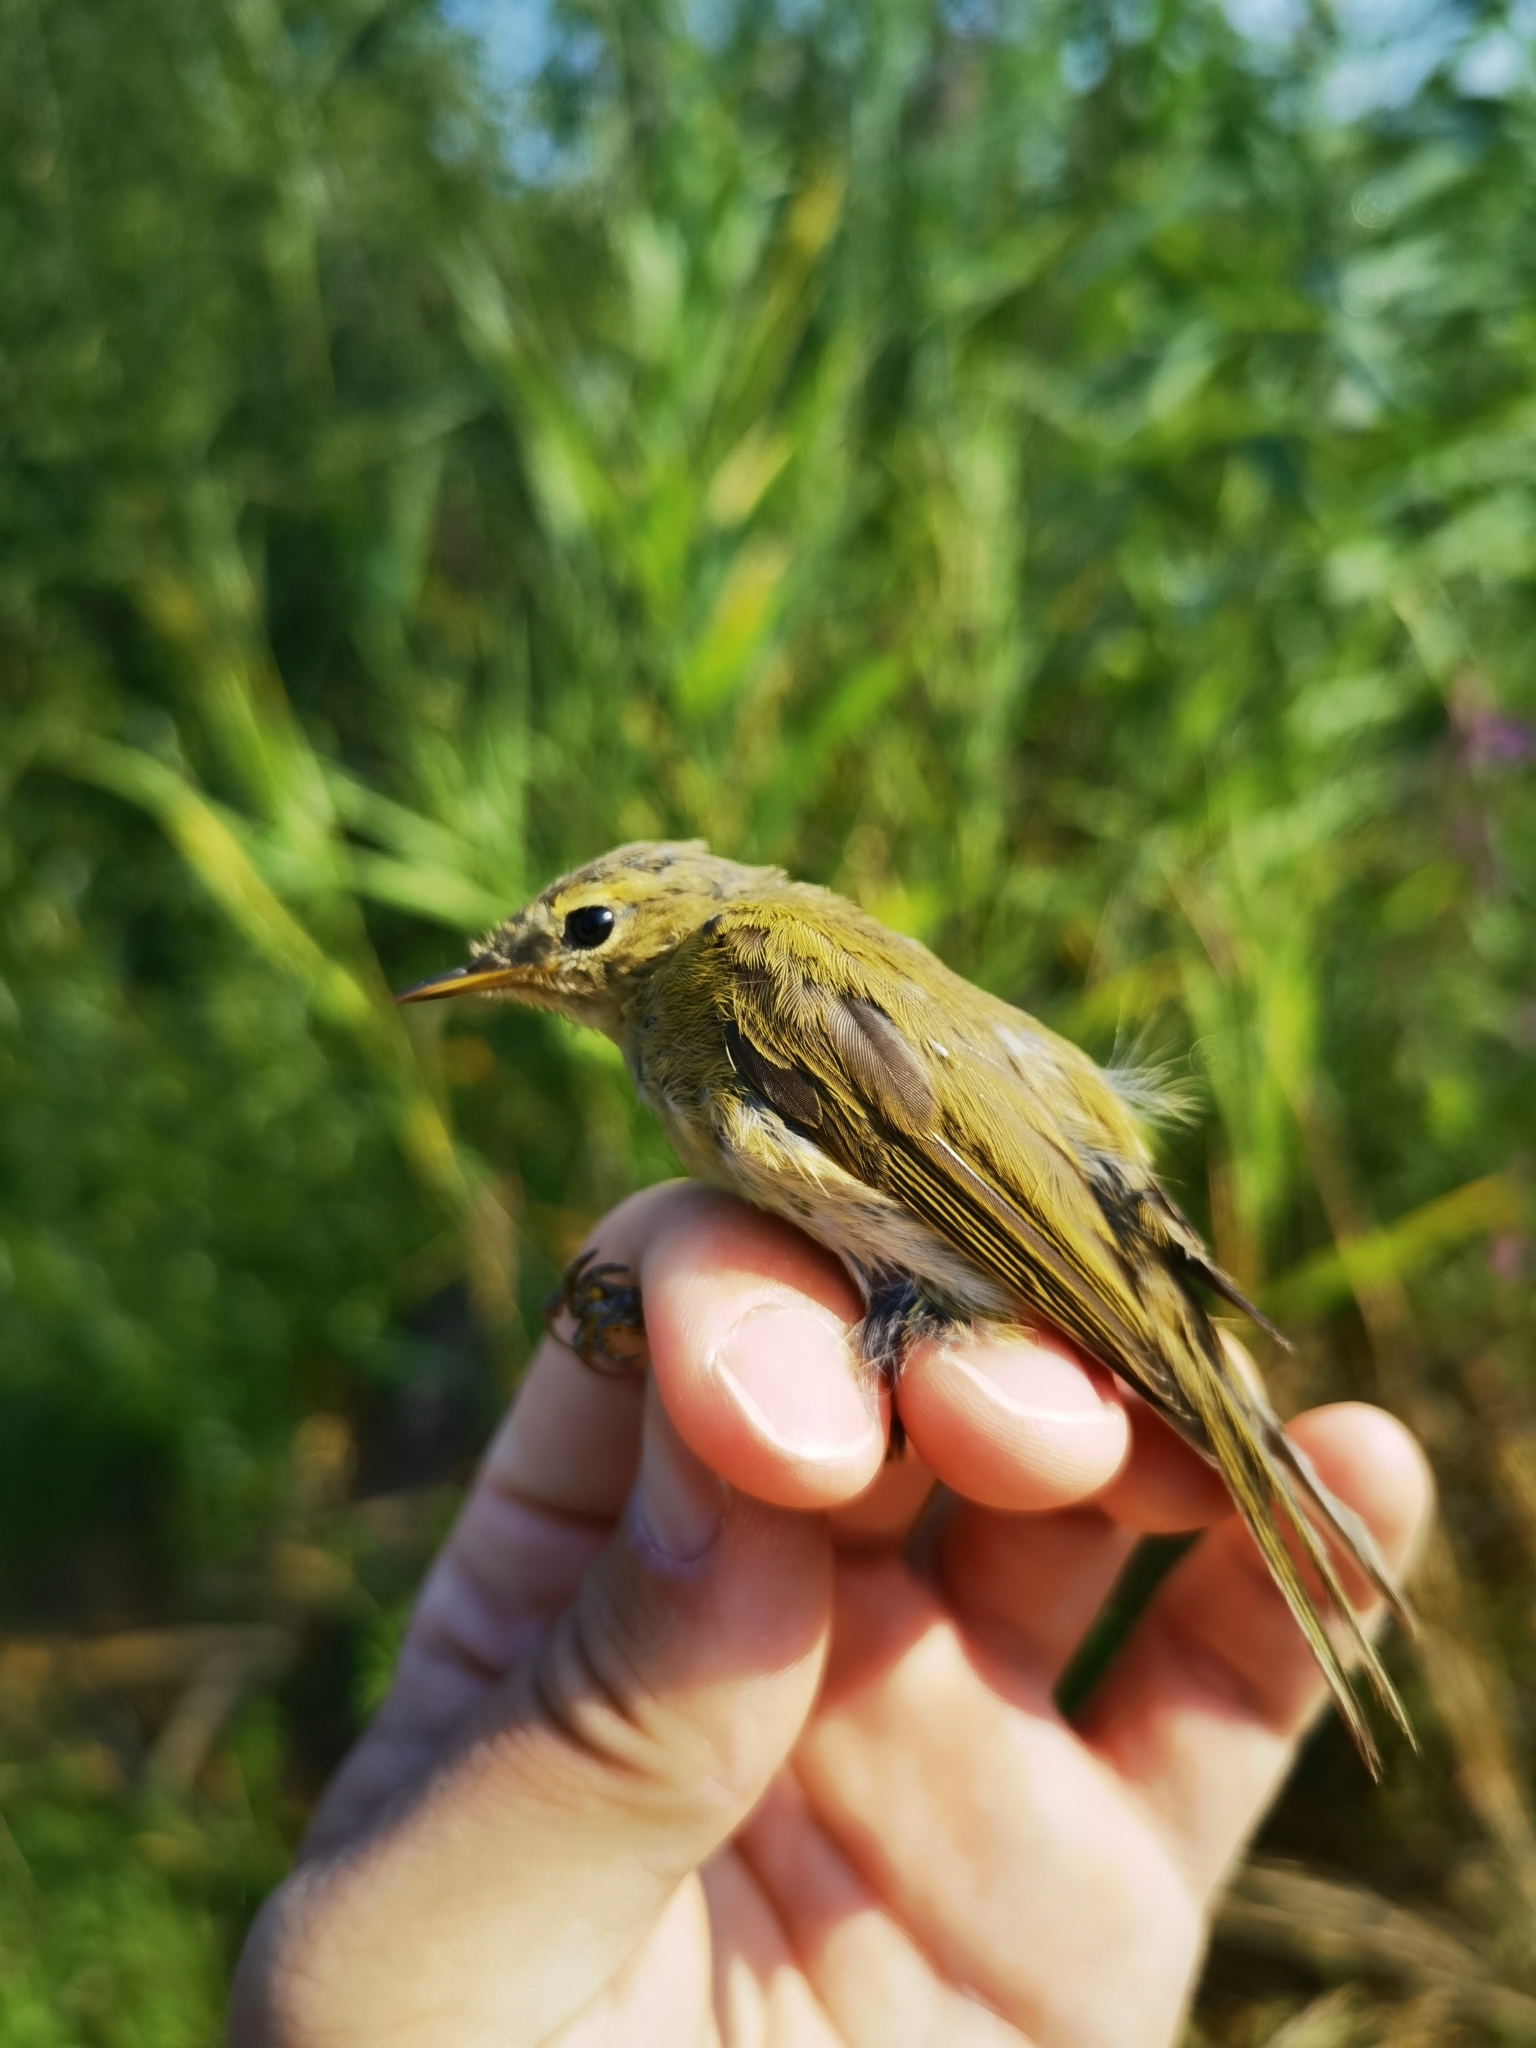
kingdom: Animalia
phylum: Chordata
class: Aves
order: Passeriformes
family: Phylloscopidae
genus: Phylloscopus
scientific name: Phylloscopus collybita
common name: Common chiffchaff
